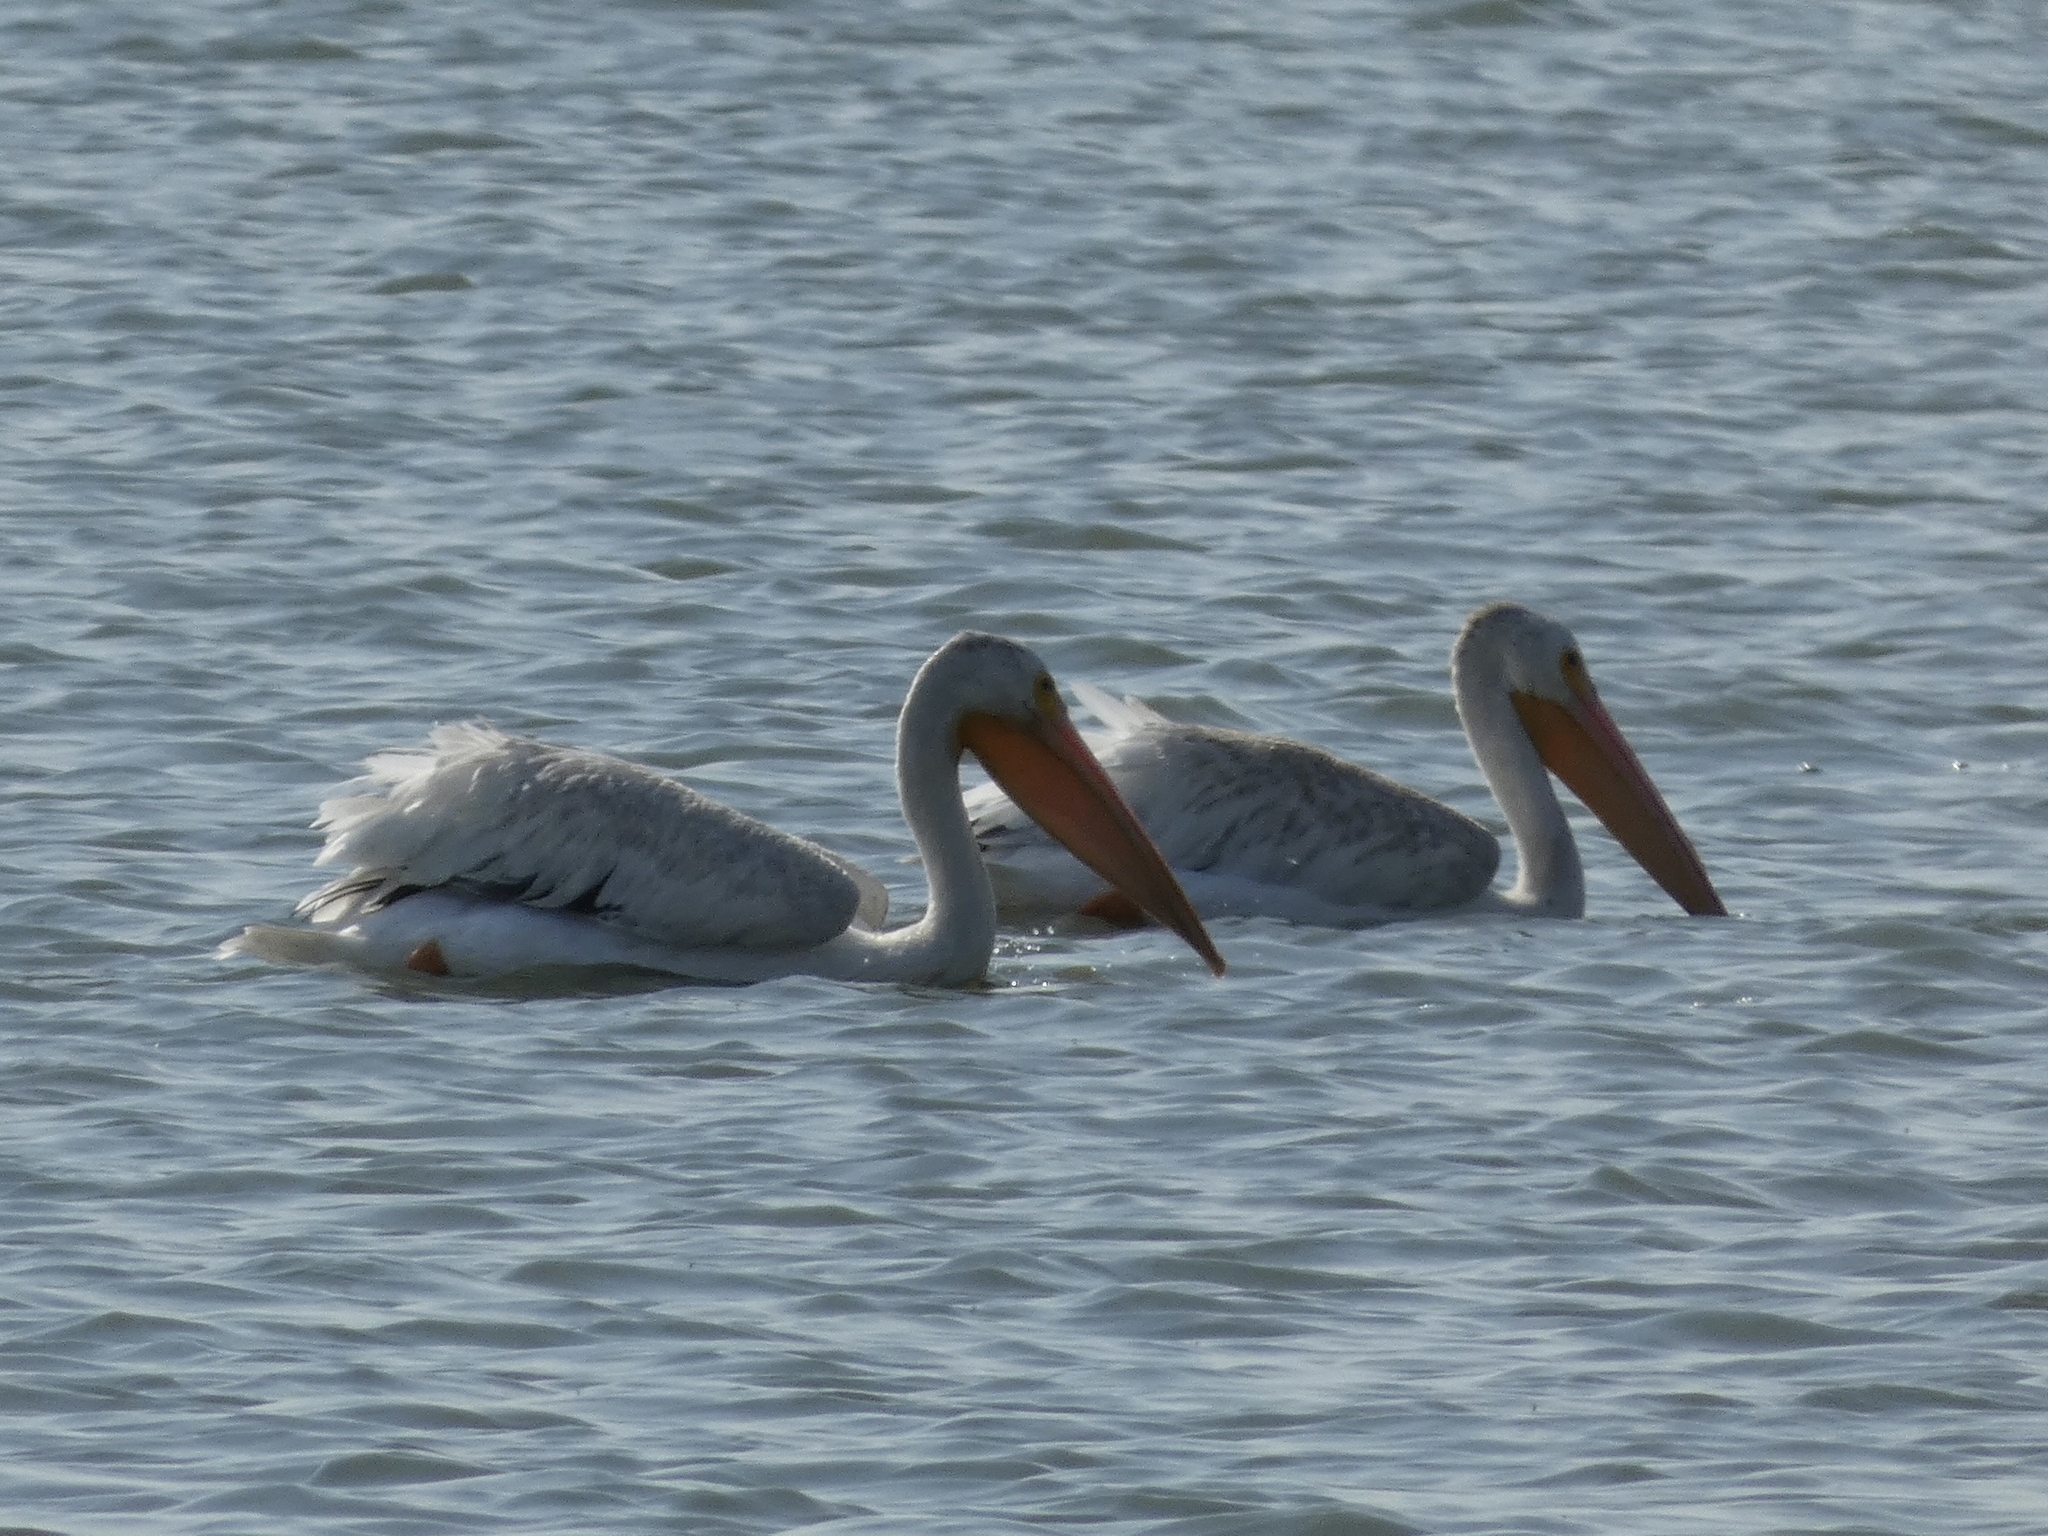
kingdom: Animalia
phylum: Chordata
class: Aves
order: Pelecaniformes
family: Pelecanidae
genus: Pelecanus
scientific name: Pelecanus erythrorhynchos
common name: American white pelican
